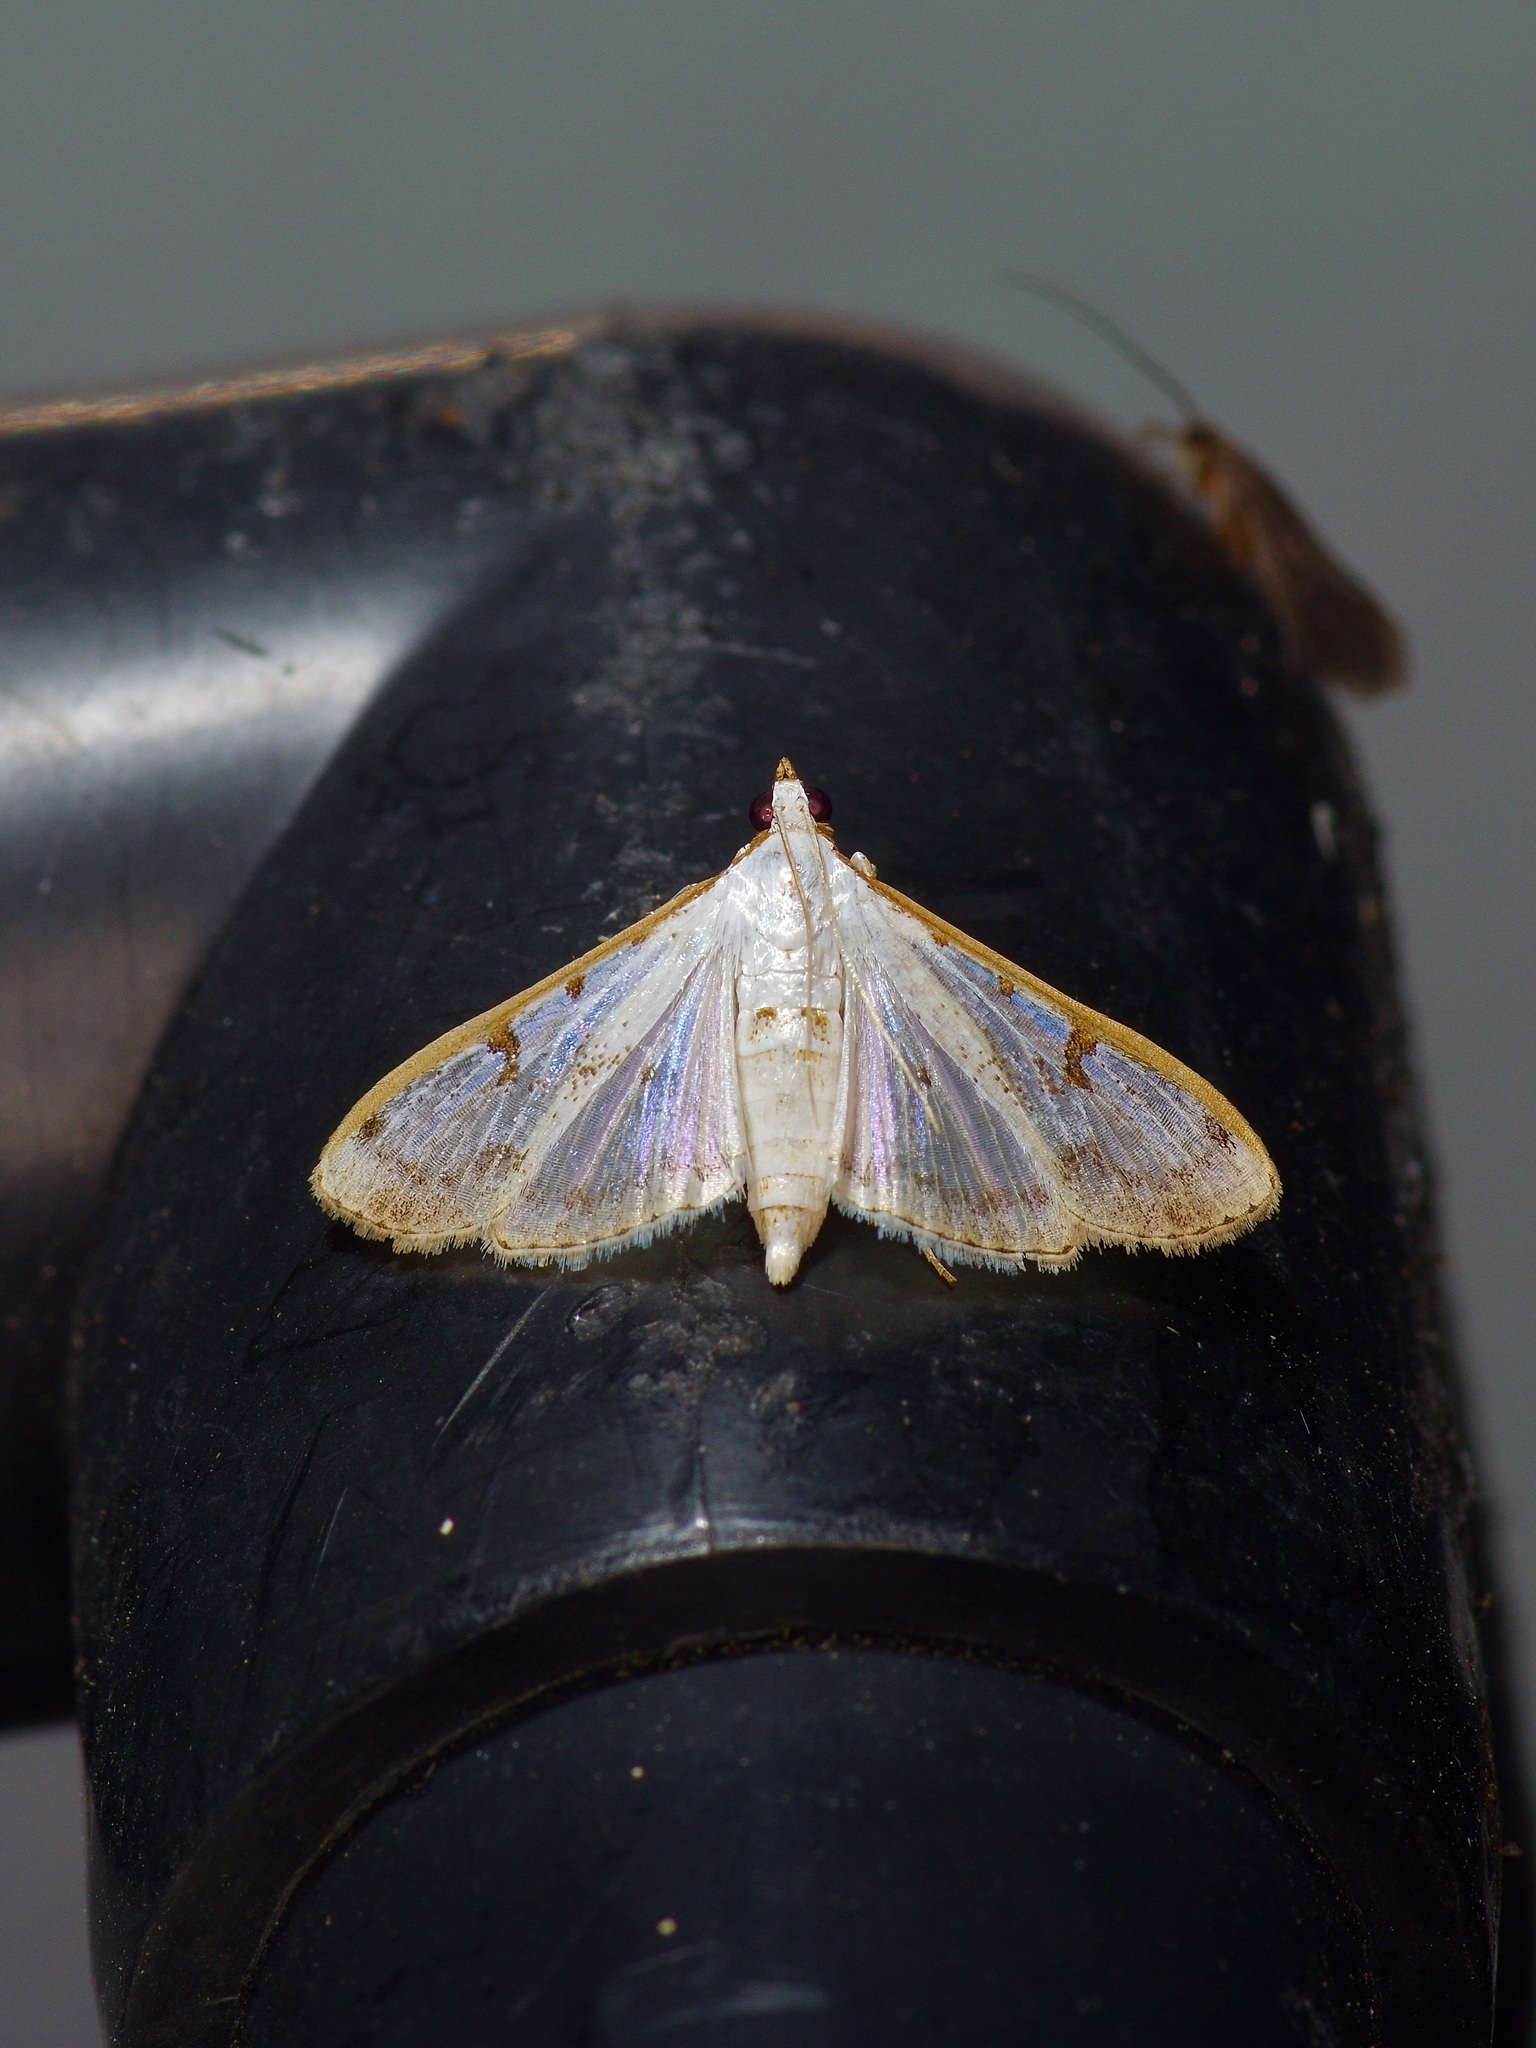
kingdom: Animalia
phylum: Arthropoda
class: Insecta
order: Lepidoptera
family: Crambidae
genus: Palpita
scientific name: Palpita gracilalis
